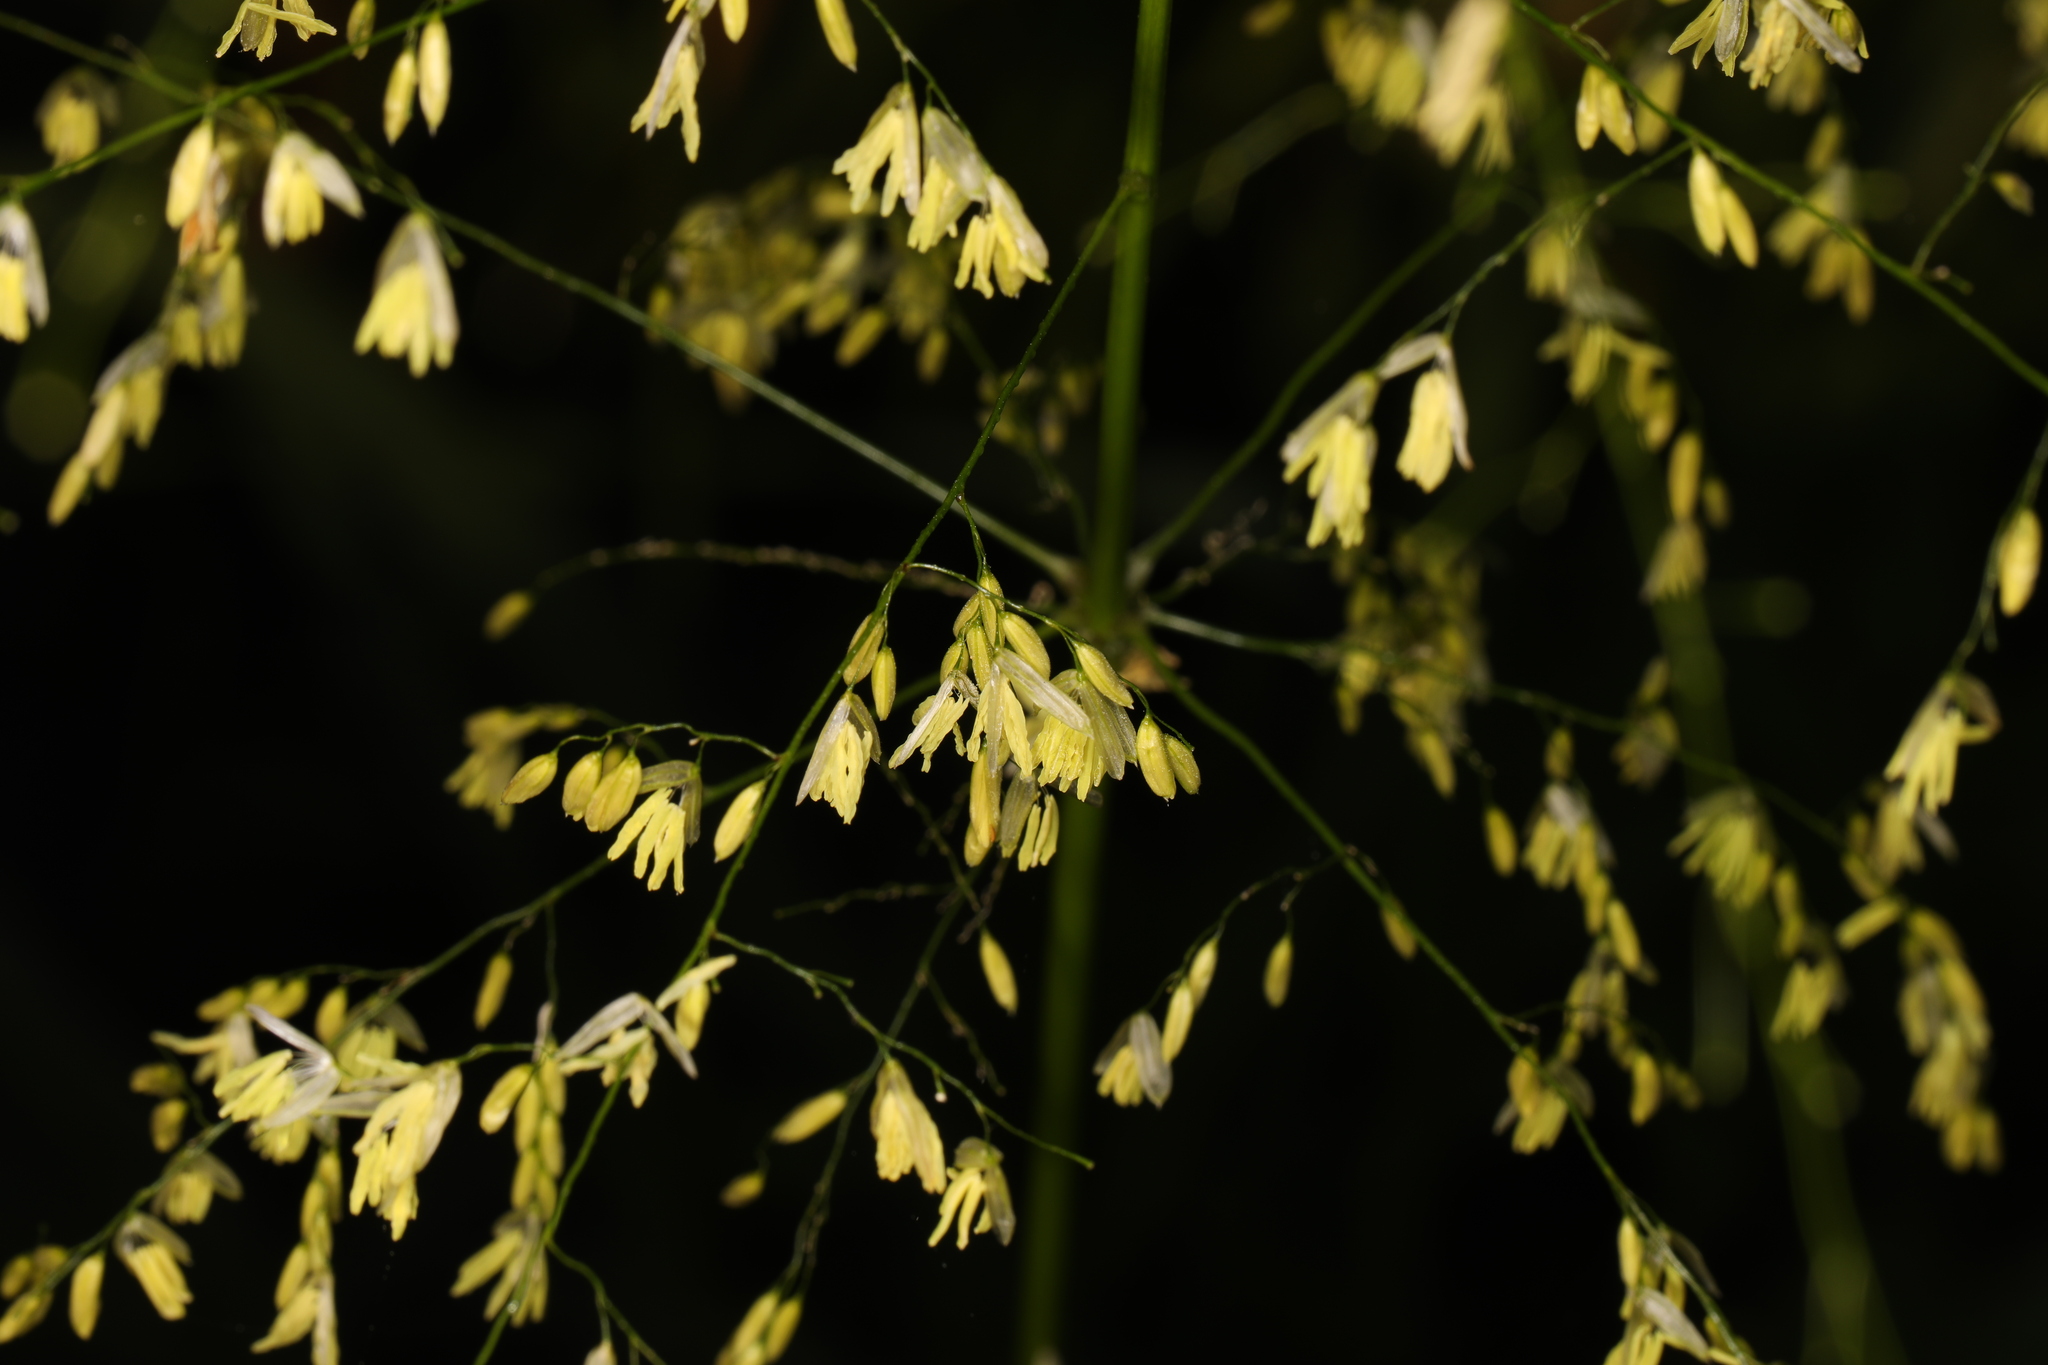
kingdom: Plantae
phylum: Tracheophyta
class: Liliopsida
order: Poales
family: Poaceae
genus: Zizania
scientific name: Zizania aquatica
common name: Annual wildrice
